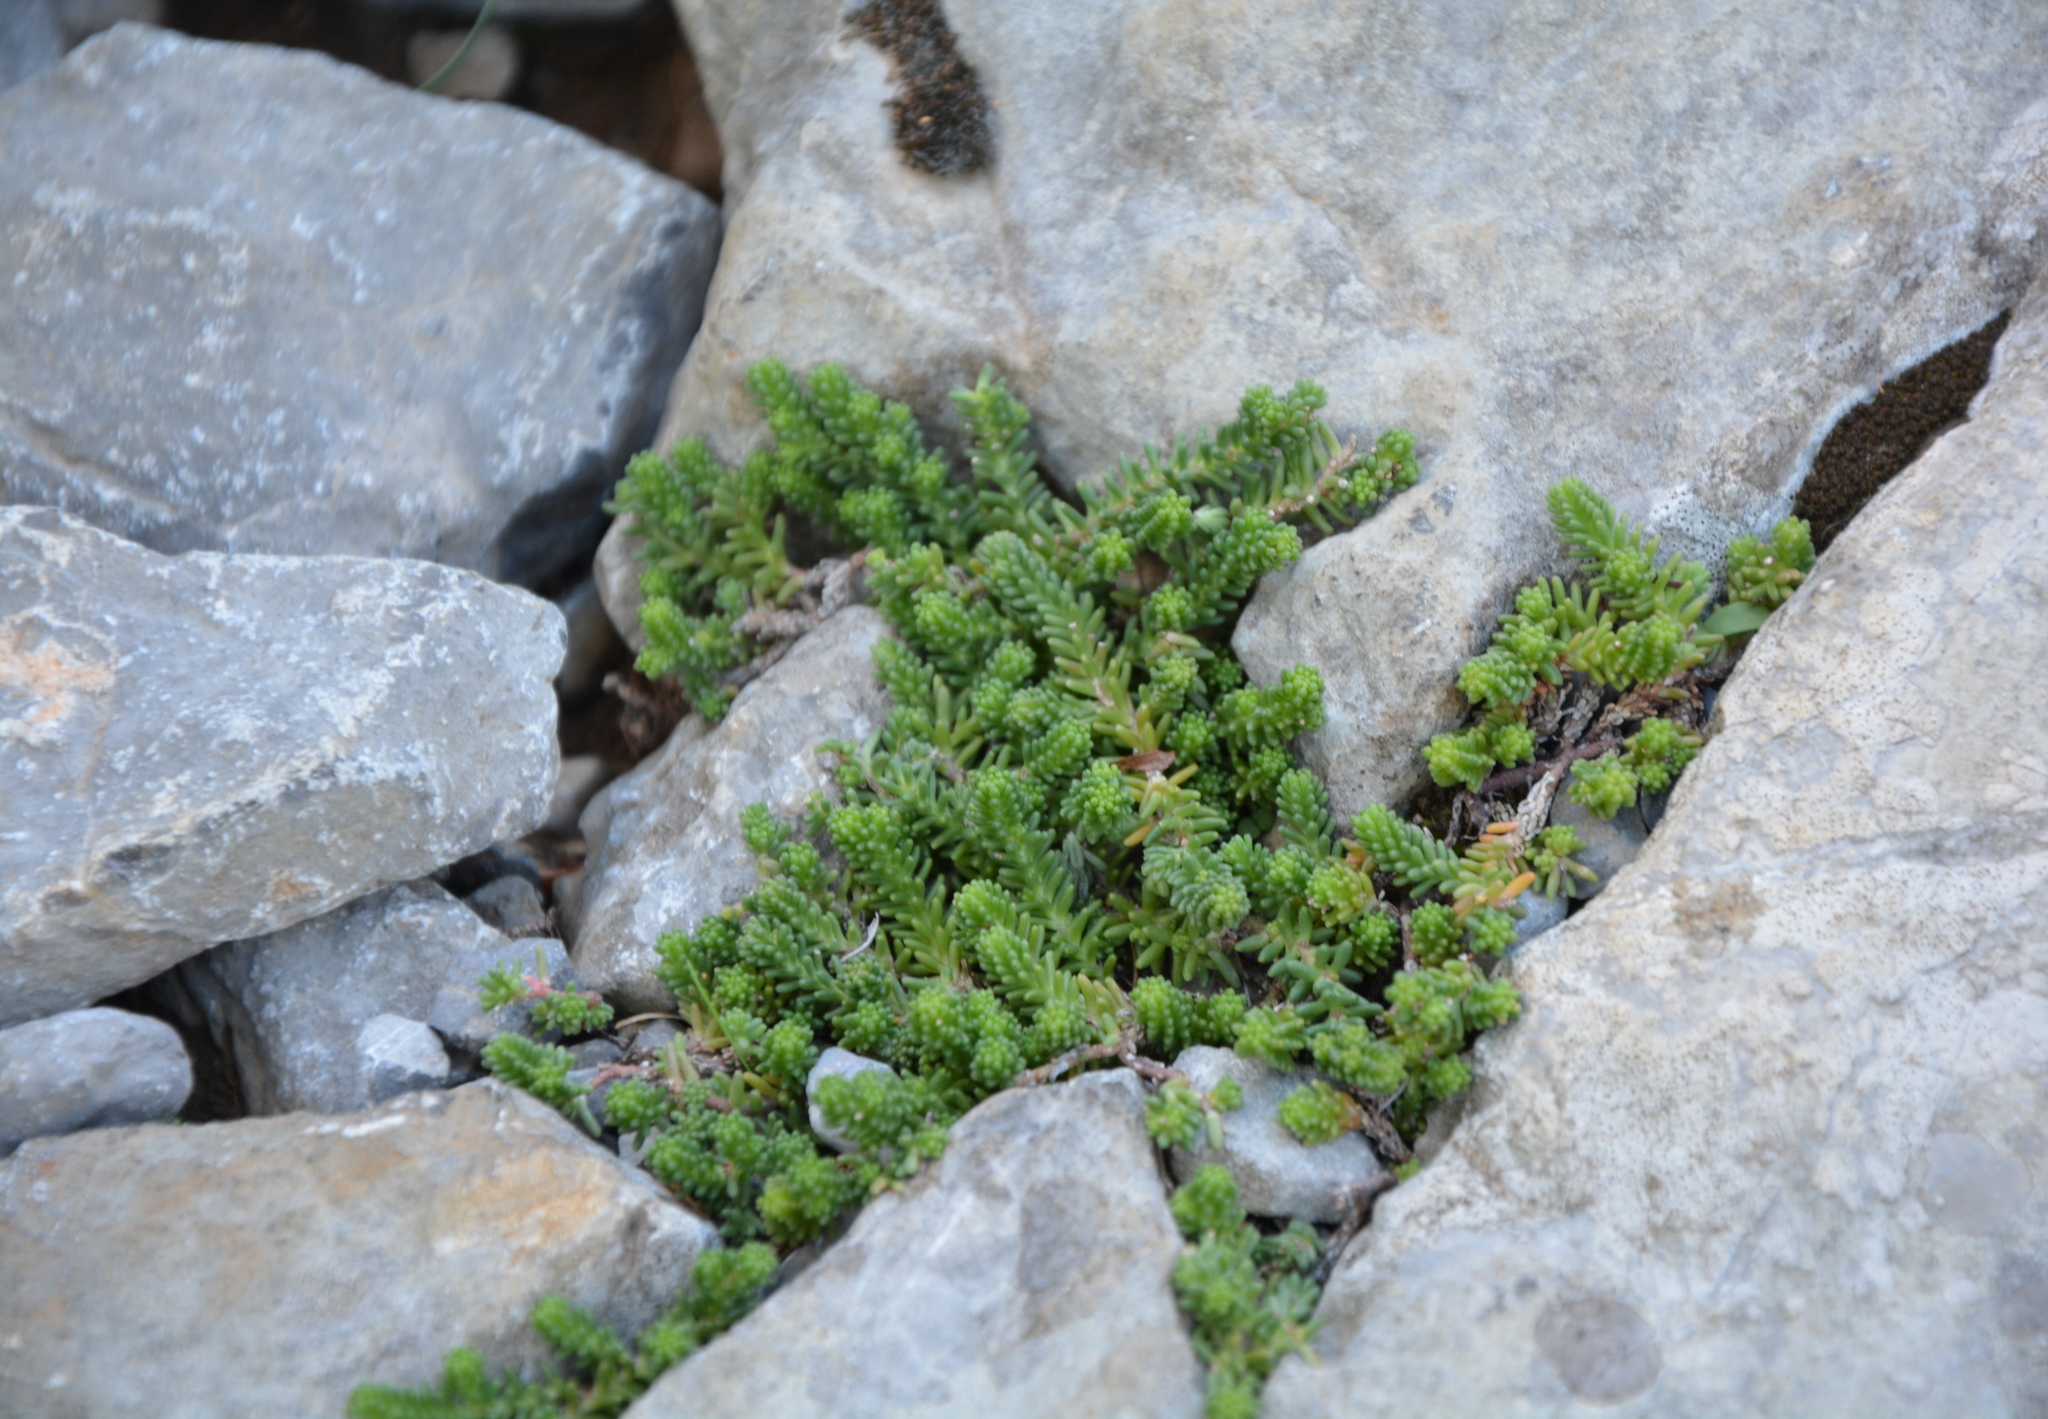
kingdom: Plantae
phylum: Tracheophyta
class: Magnoliopsida
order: Saxifragales
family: Crassulaceae
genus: Sedum
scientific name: Sedum sexangulare
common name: Tasteless stonecrop
